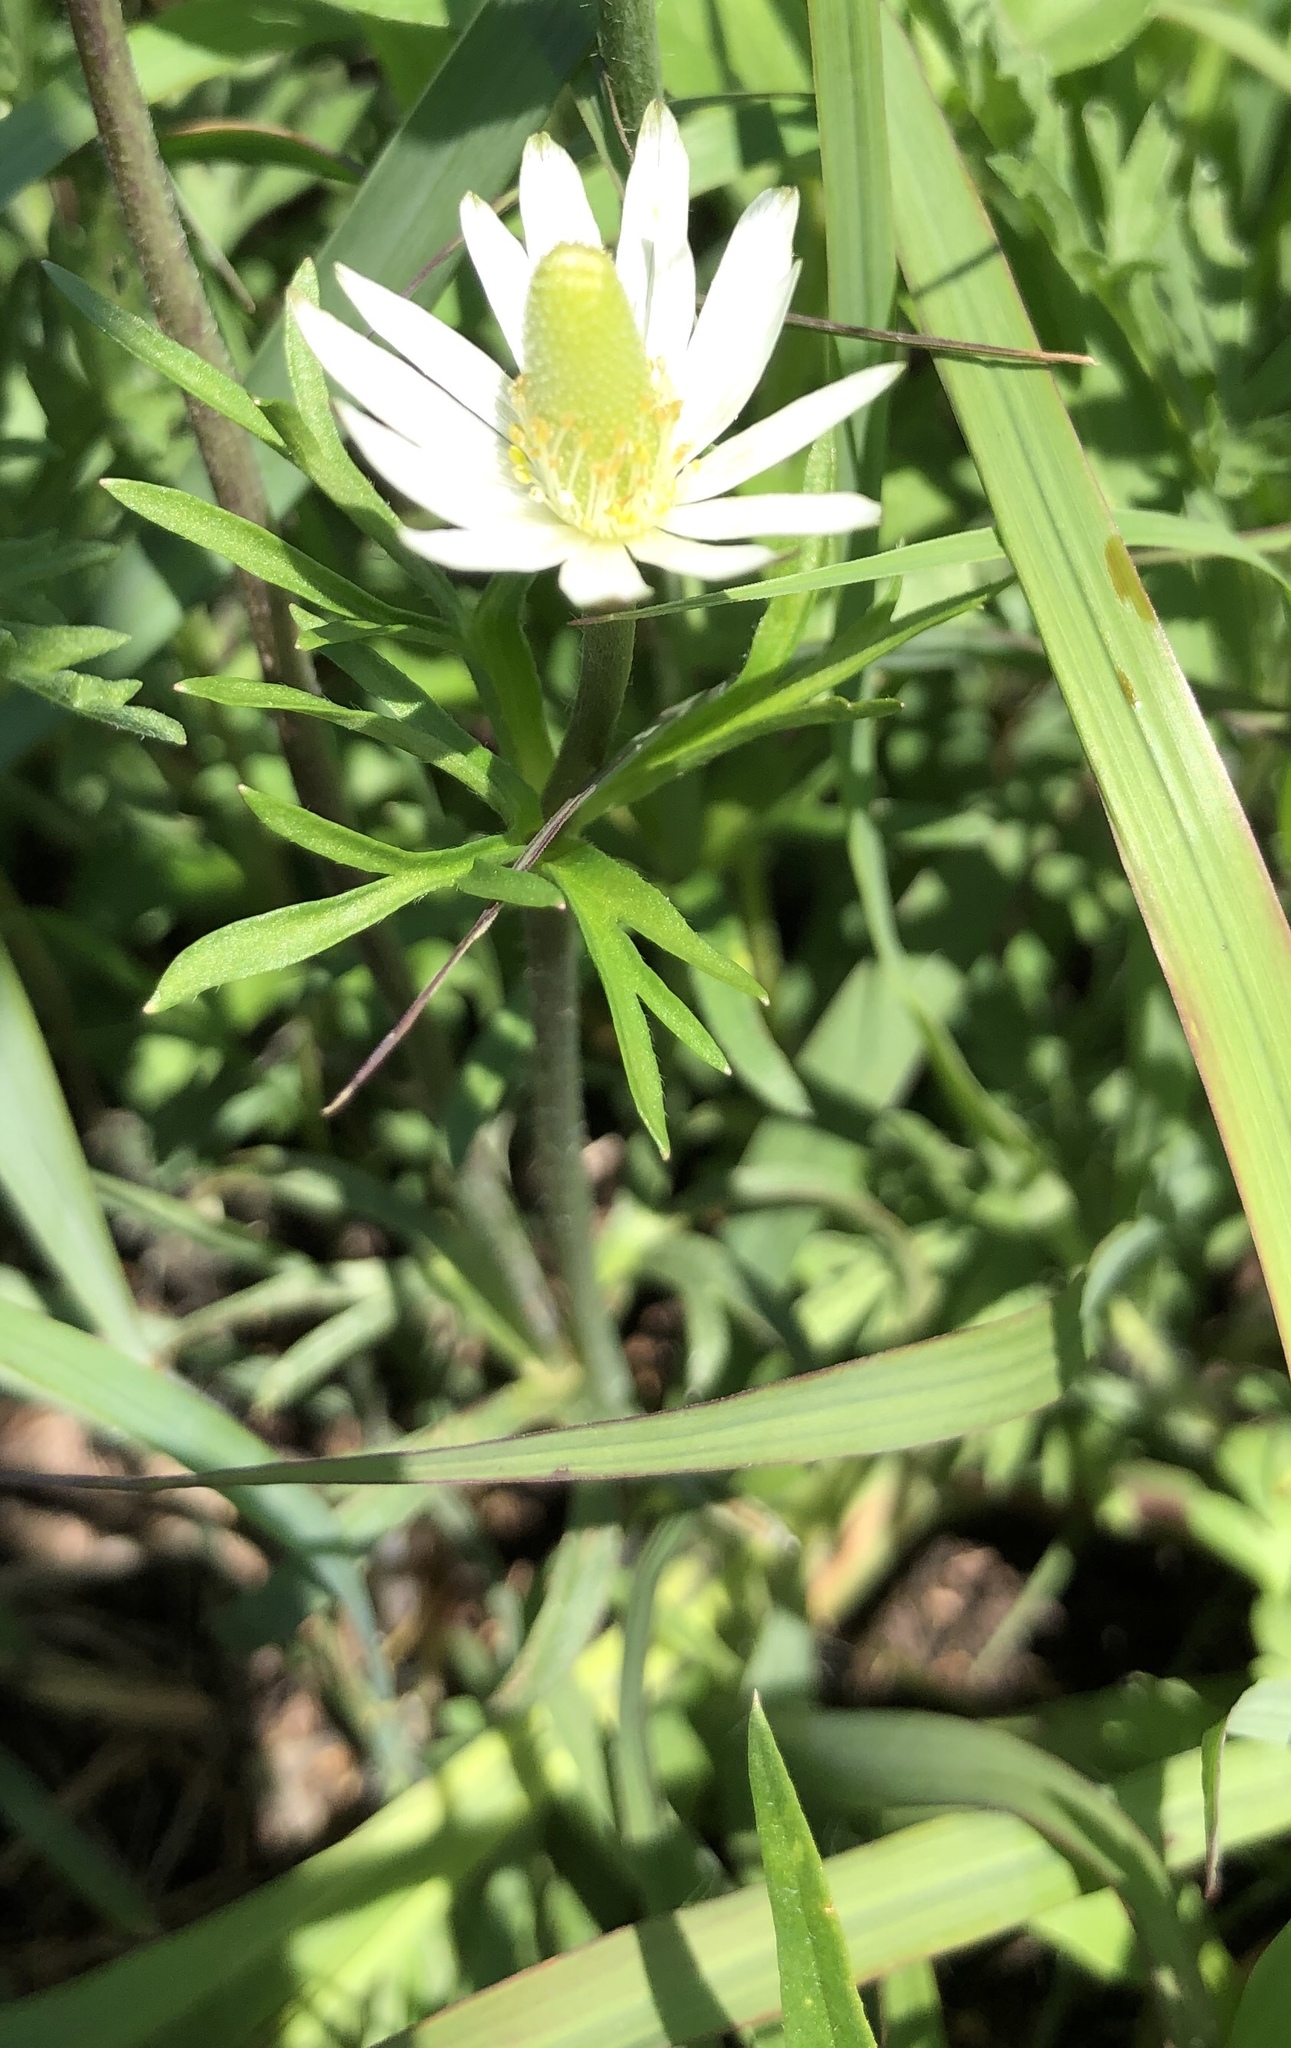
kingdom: Plantae
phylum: Tracheophyta
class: Magnoliopsida
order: Ranunculales
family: Ranunculaceae
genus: Anemone
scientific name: Anemone berlandieri
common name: Ten-petal anemone
